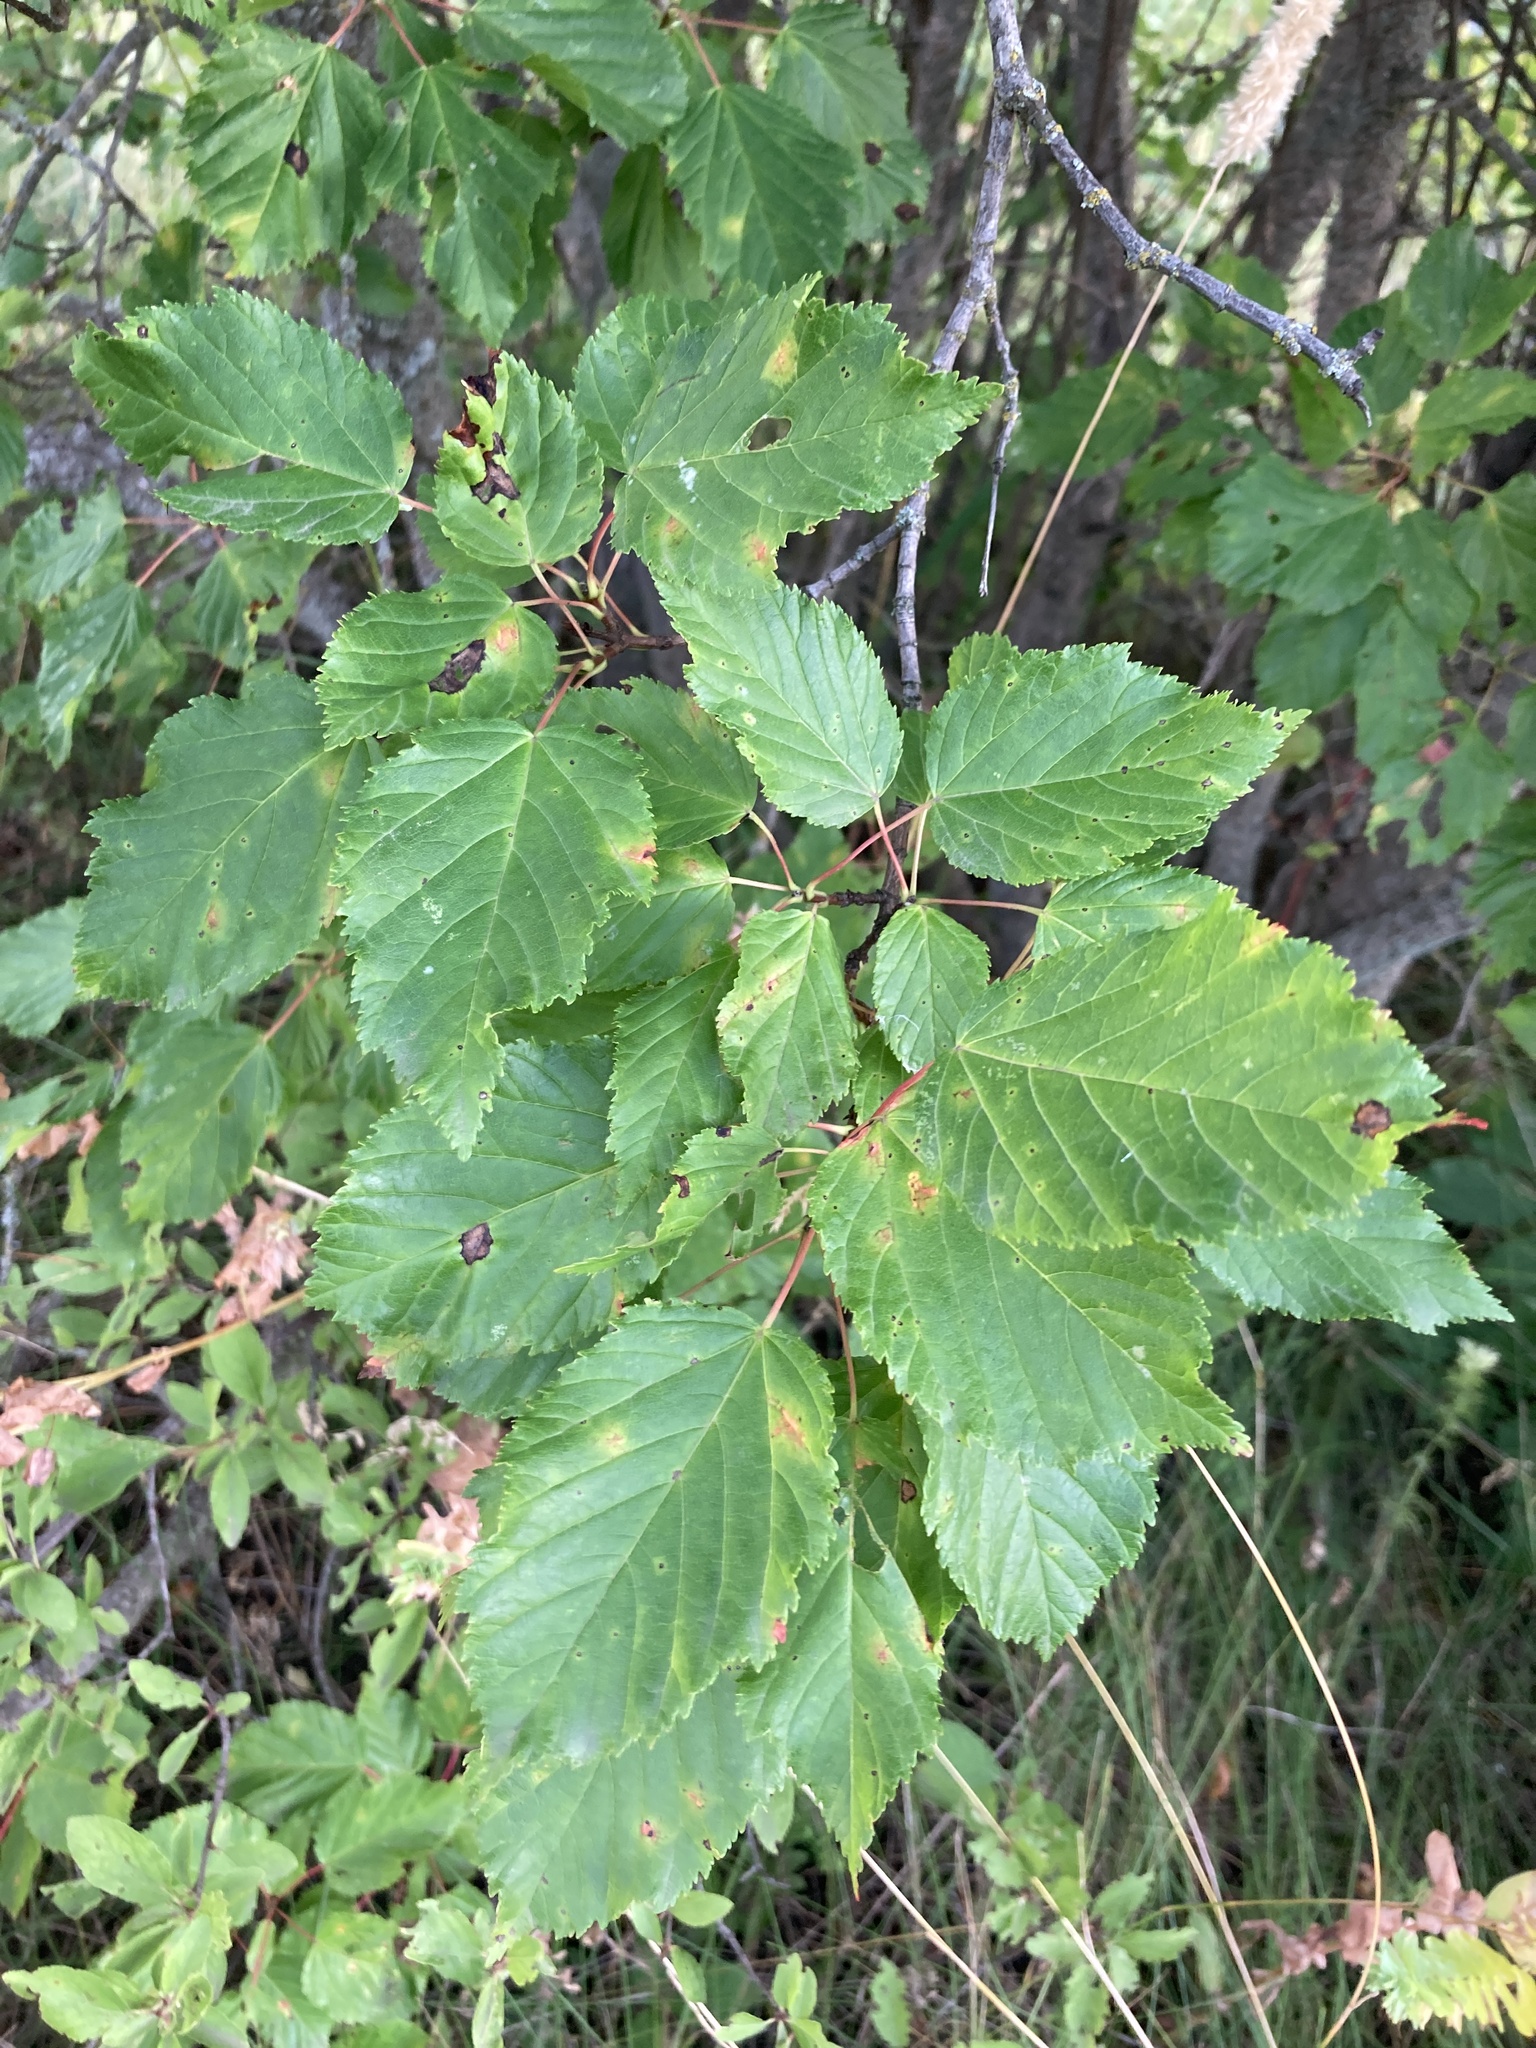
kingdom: Plantae
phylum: Tracheophyta
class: Magnoliopsida
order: Sapindales
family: Sapindaceae
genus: Acer
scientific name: Acer tataricum
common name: Tartar maple
